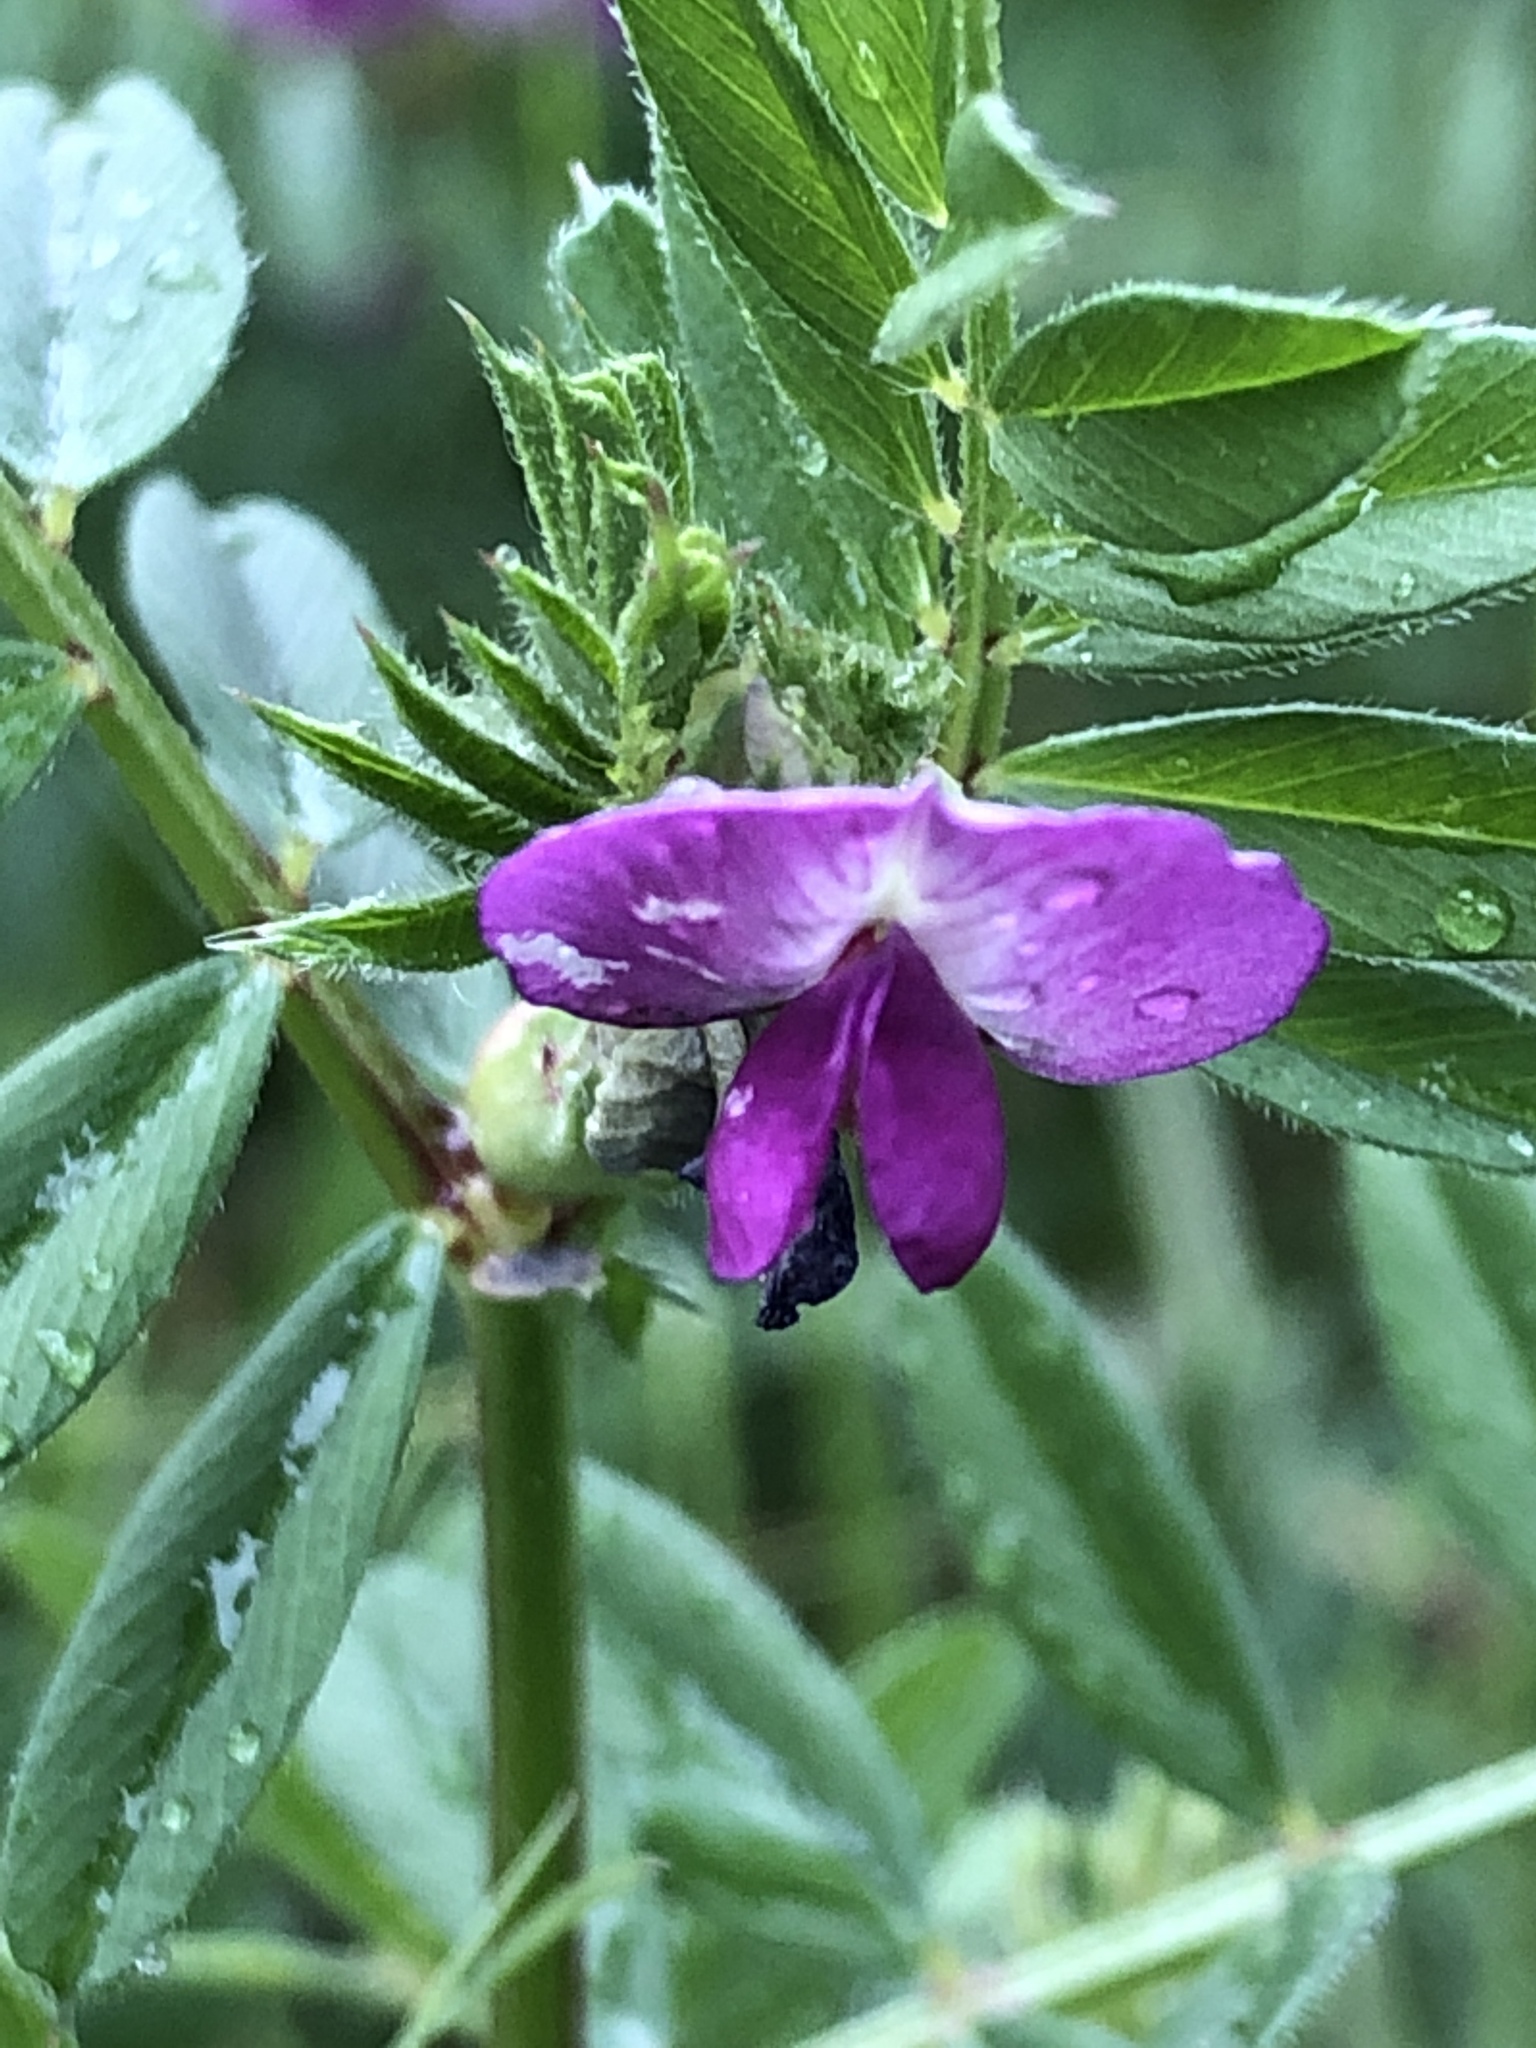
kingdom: Plantae
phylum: Tracheophyta
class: Magnoliopsida
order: Fabales
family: Fabaceae
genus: Vicia
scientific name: Vicia sativa
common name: Garden vetch
